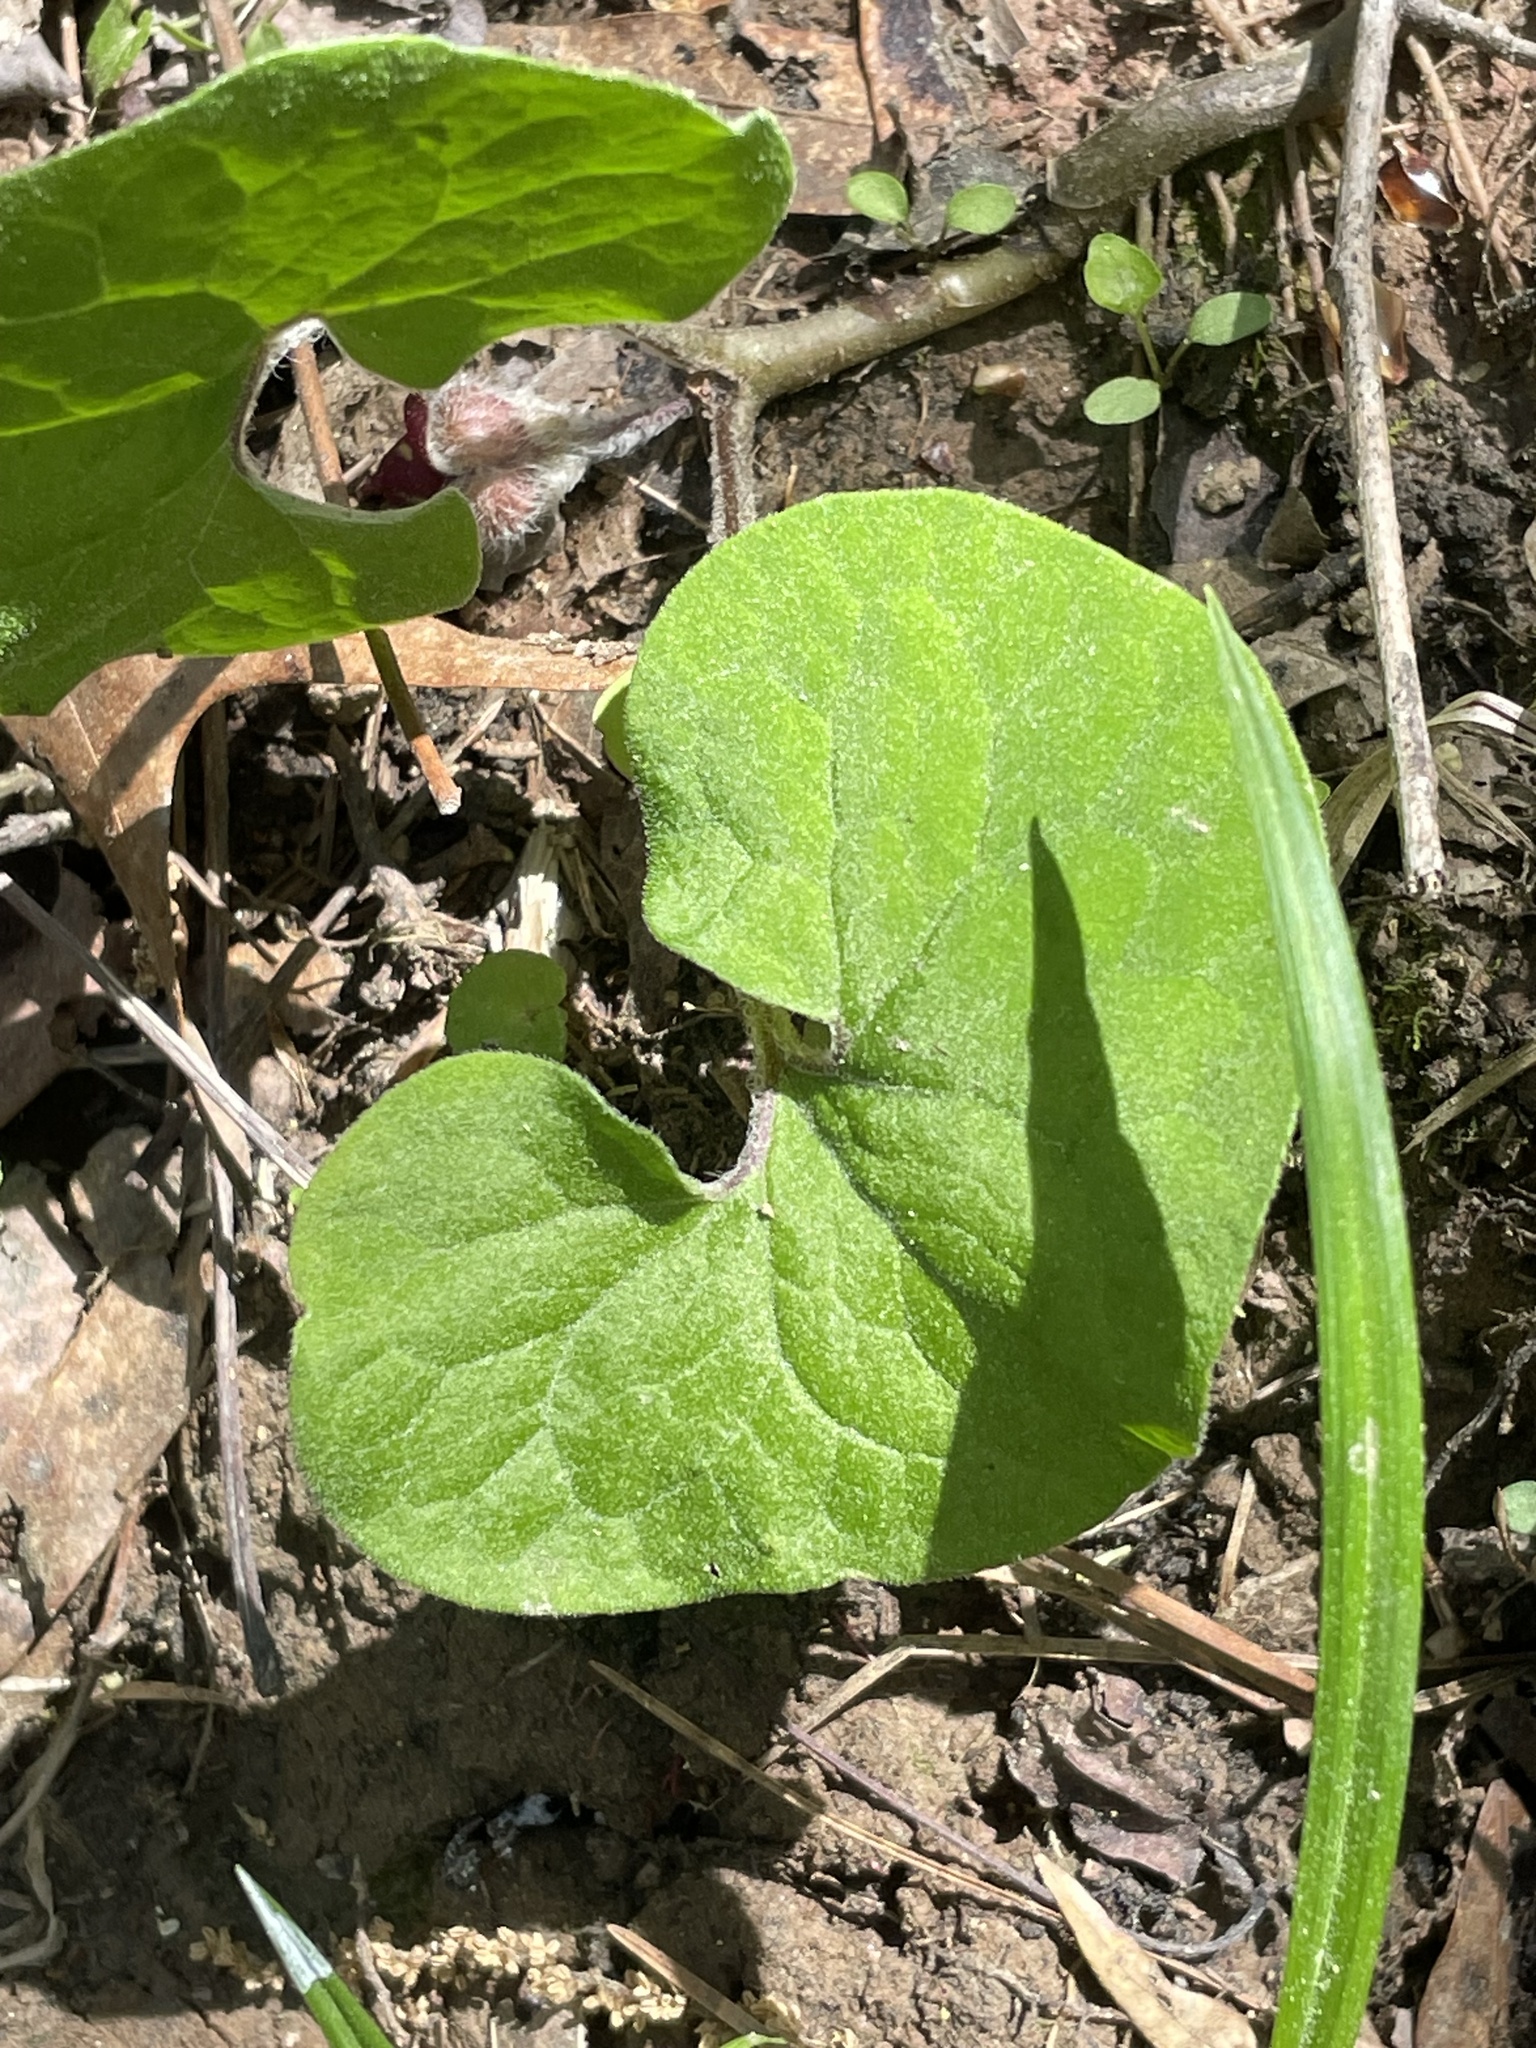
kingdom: Plantae
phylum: Tracheophyta
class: Magnoliopsida
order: Piperales
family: Aristolochiaceae
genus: Asarum
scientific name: Asarum canadense
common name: Wild ginger
